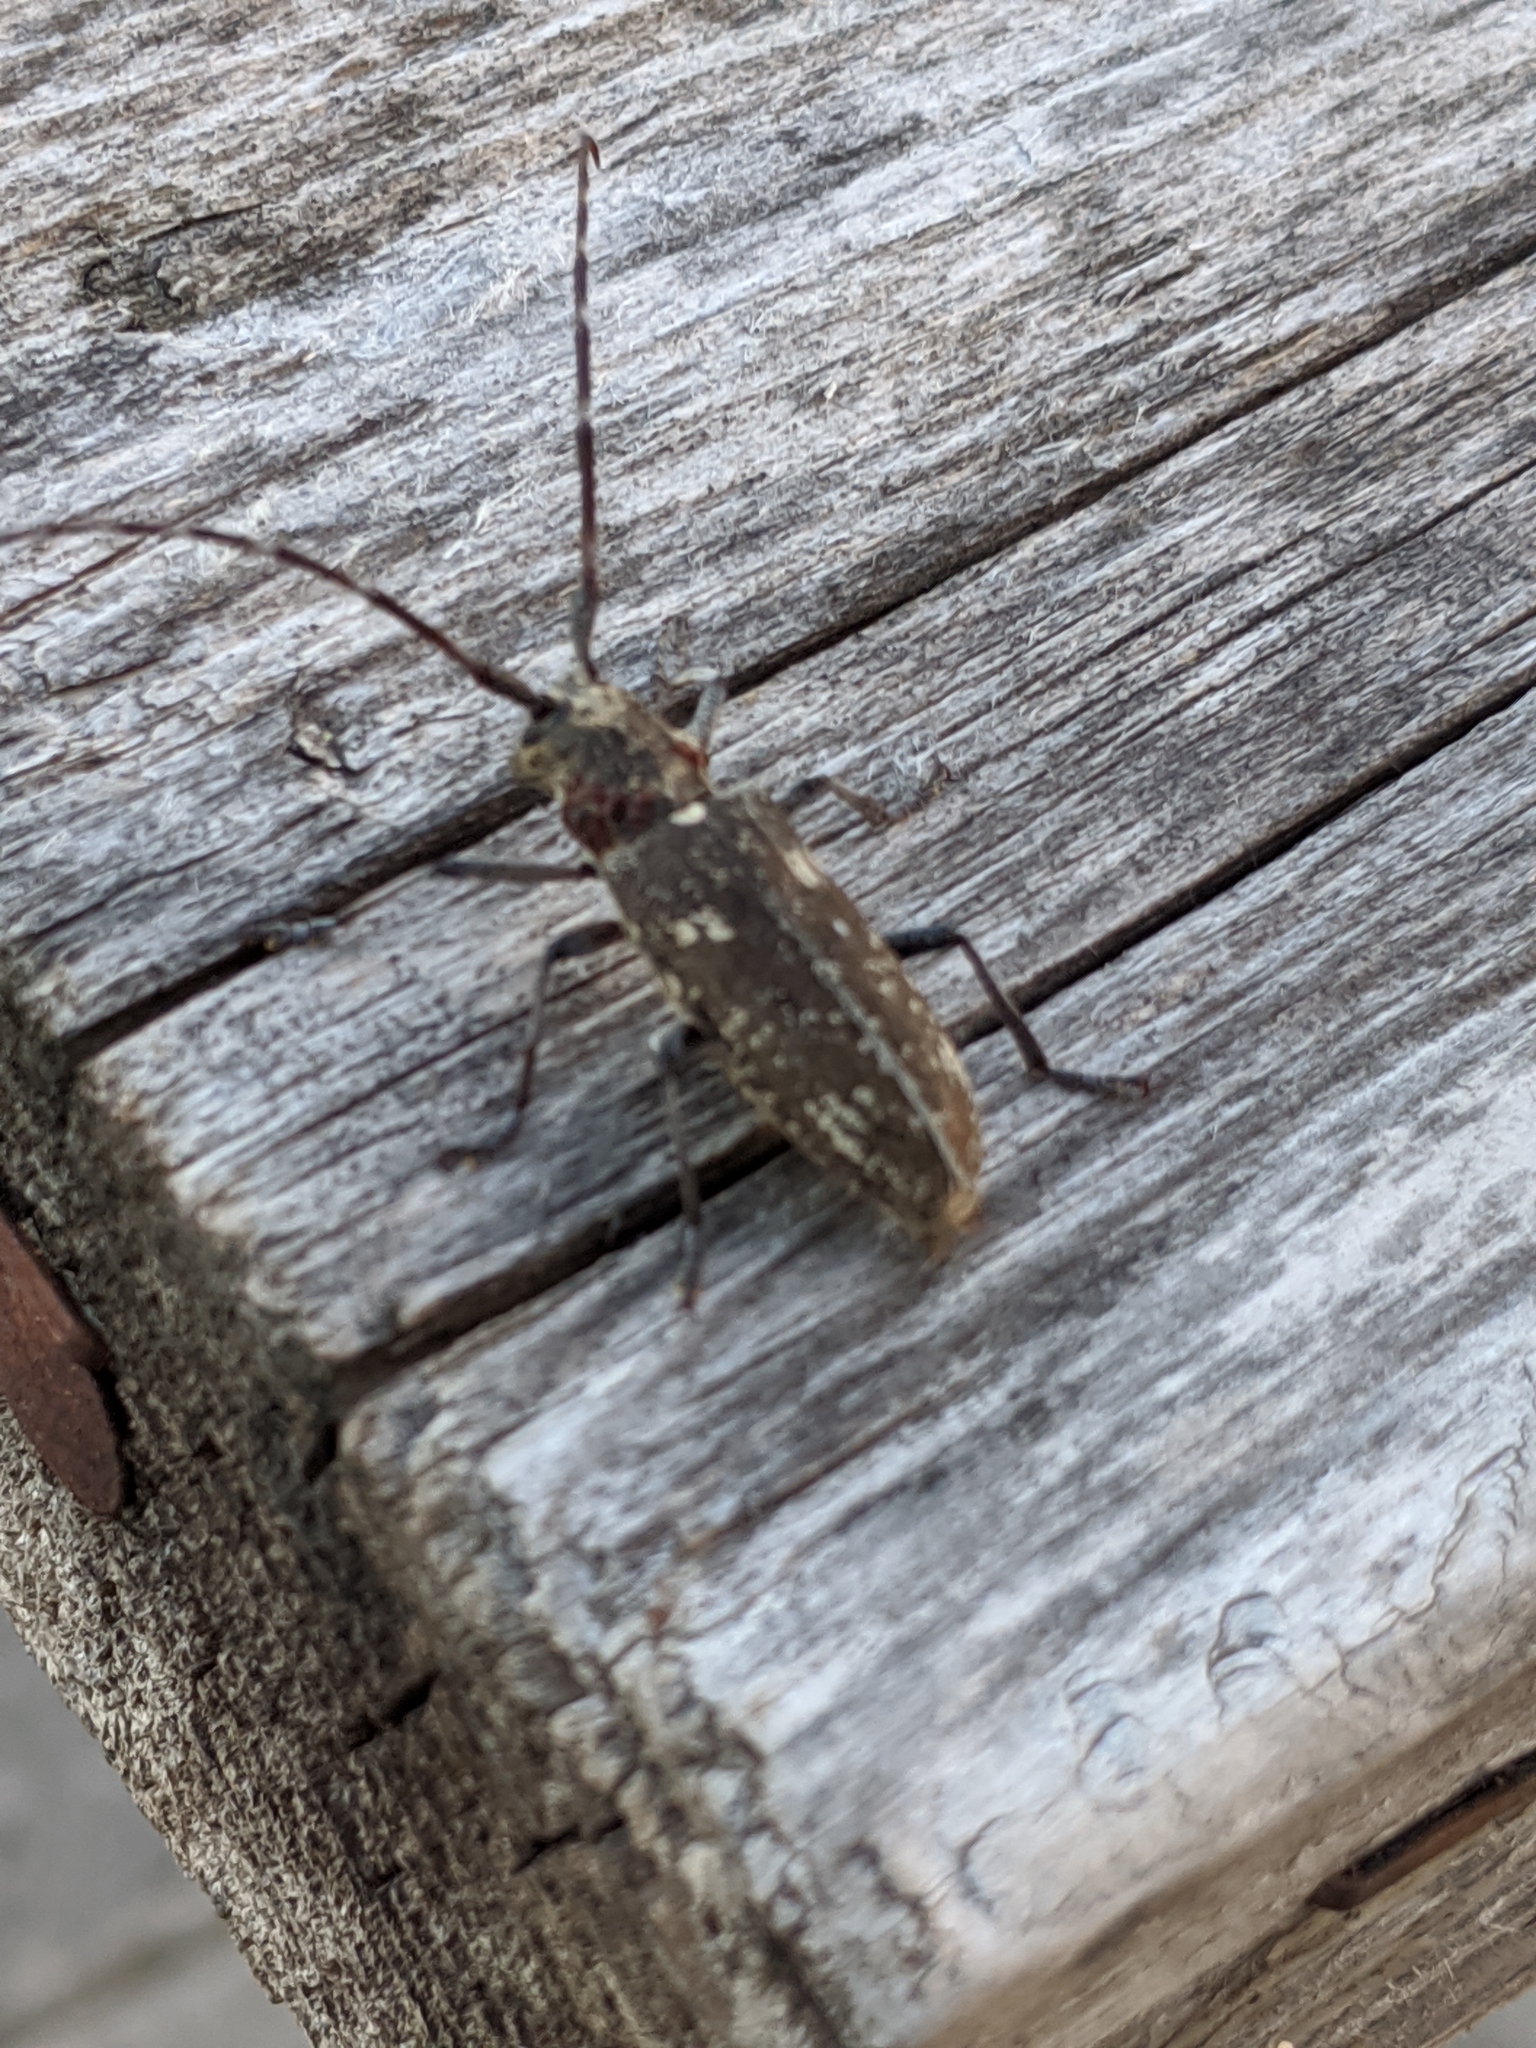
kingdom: Animalia
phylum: Arthropoda
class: Insecta
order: Coleoptera
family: Cerambycidae
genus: Monochamus
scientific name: Monochamus scutellatus
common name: White-spotted sawyer beetle
